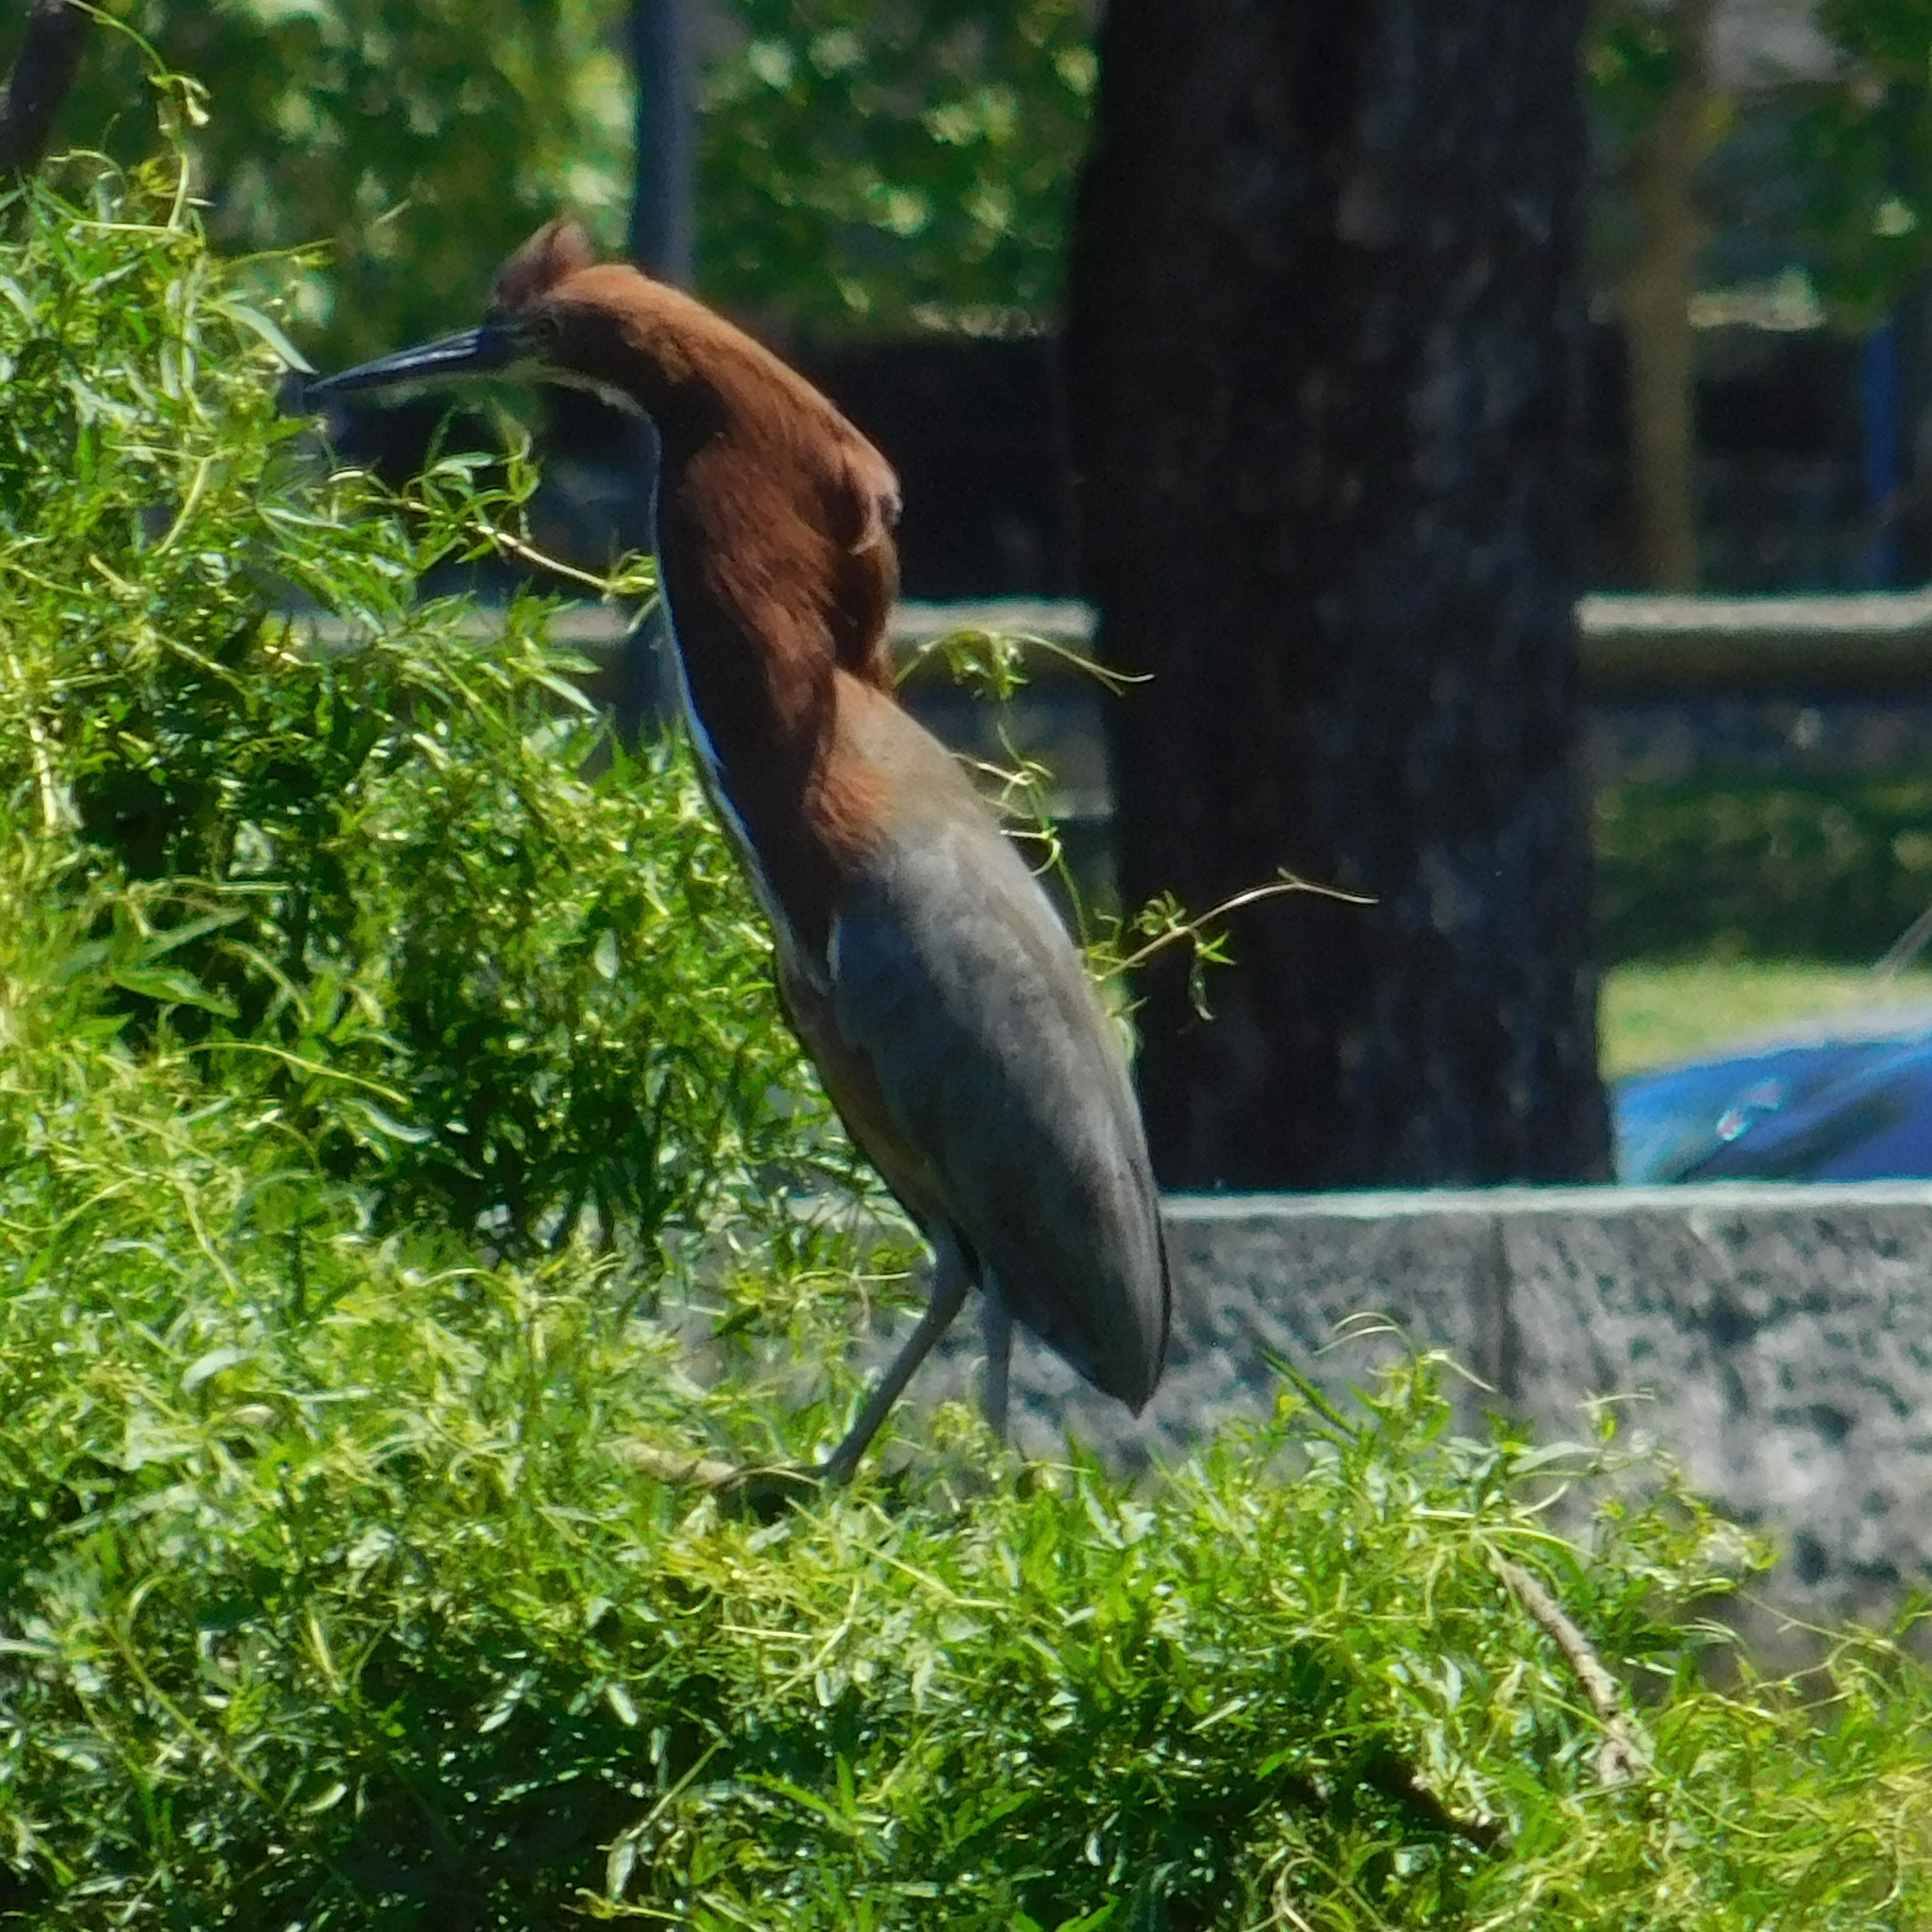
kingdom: Animalia
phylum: Chordata
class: Aves
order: Pelecaniformes
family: Ardeidae
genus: Tigrisoma
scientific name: Tigrisoma lineatum
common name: Rufescent tiger-heron
